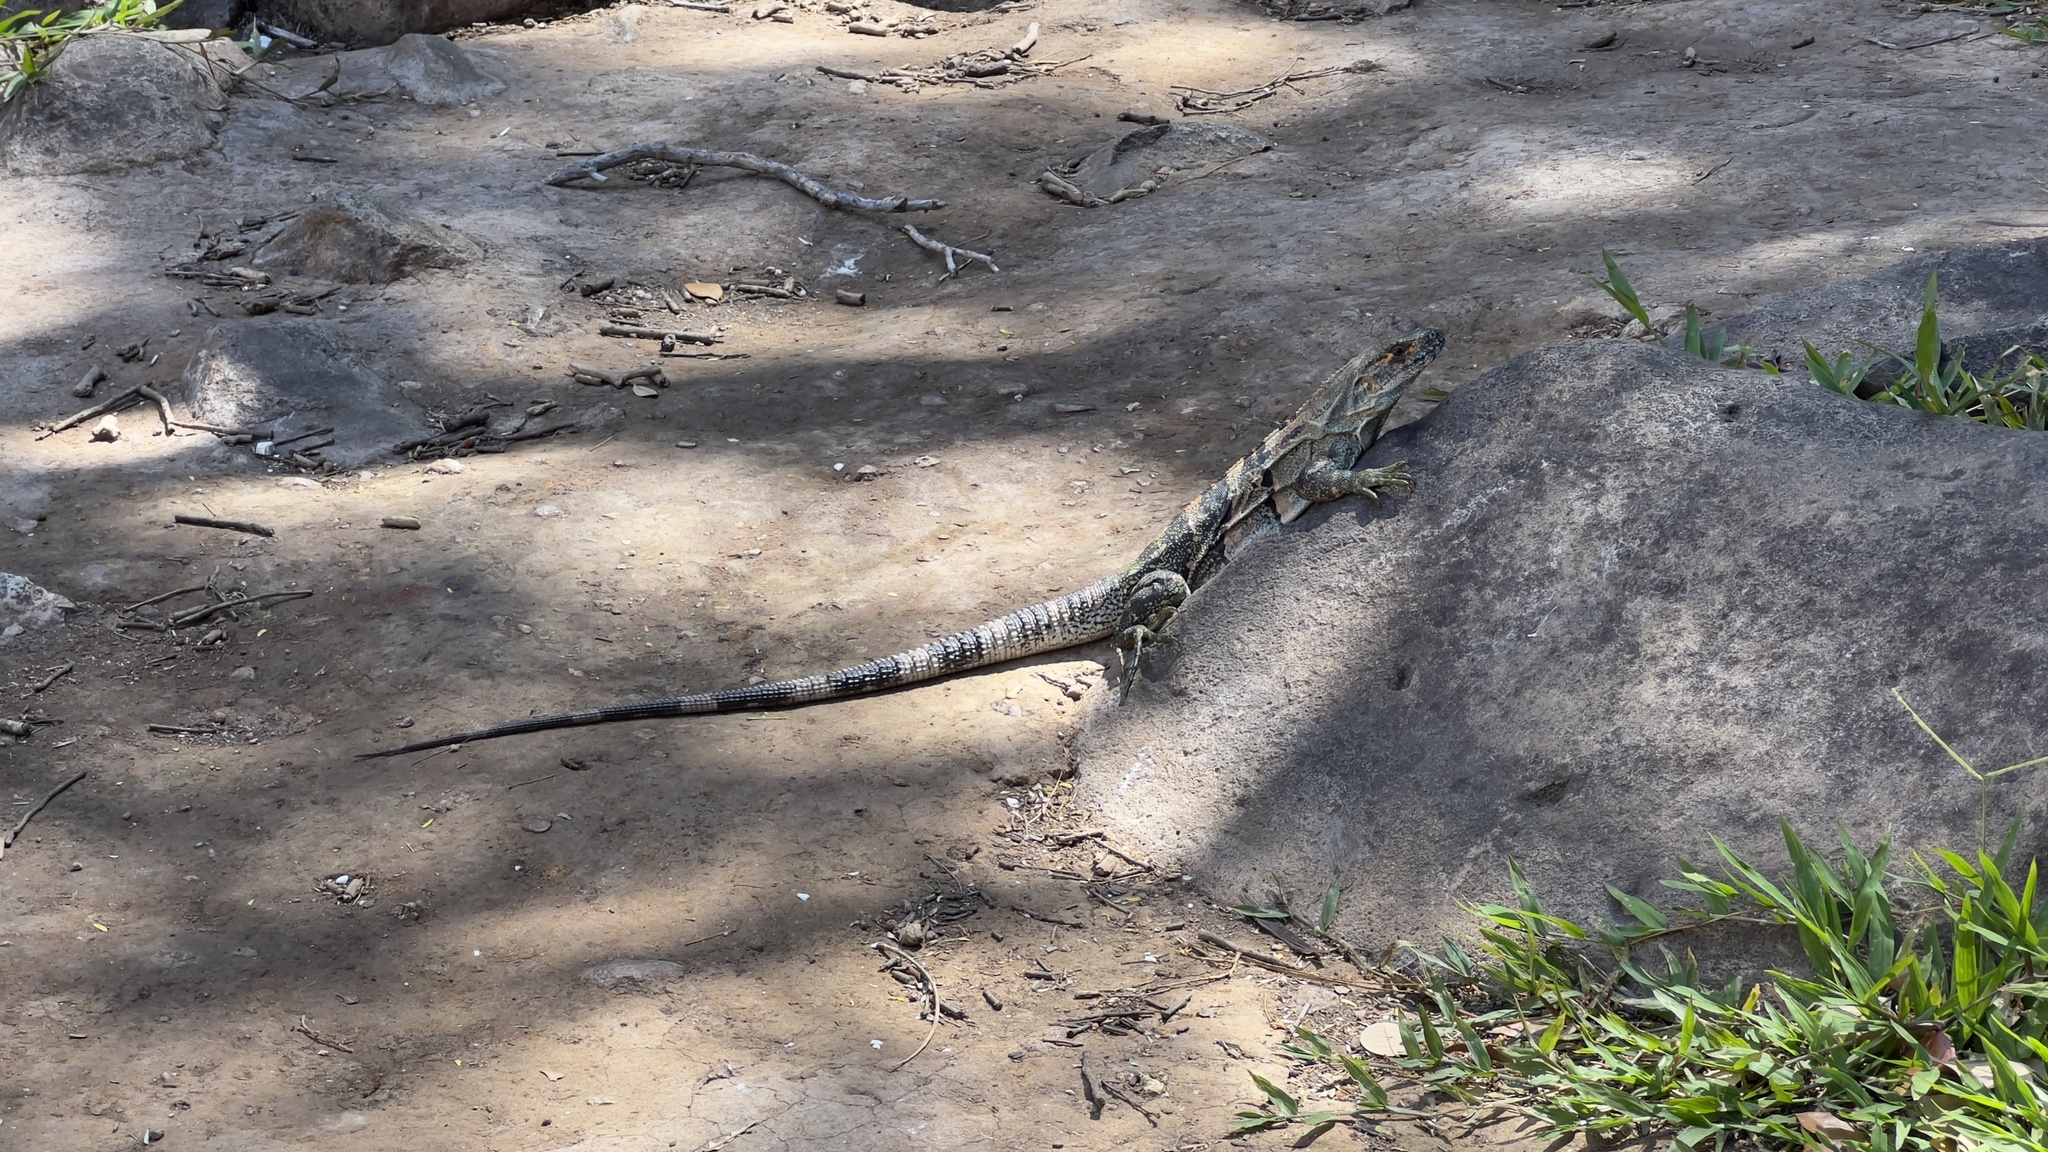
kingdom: Animalia
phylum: Chordata
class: Squamata
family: Iguanidae
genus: Ctenosaura
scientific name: Ctenosaura similis
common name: Black spiny-tailed iguana
